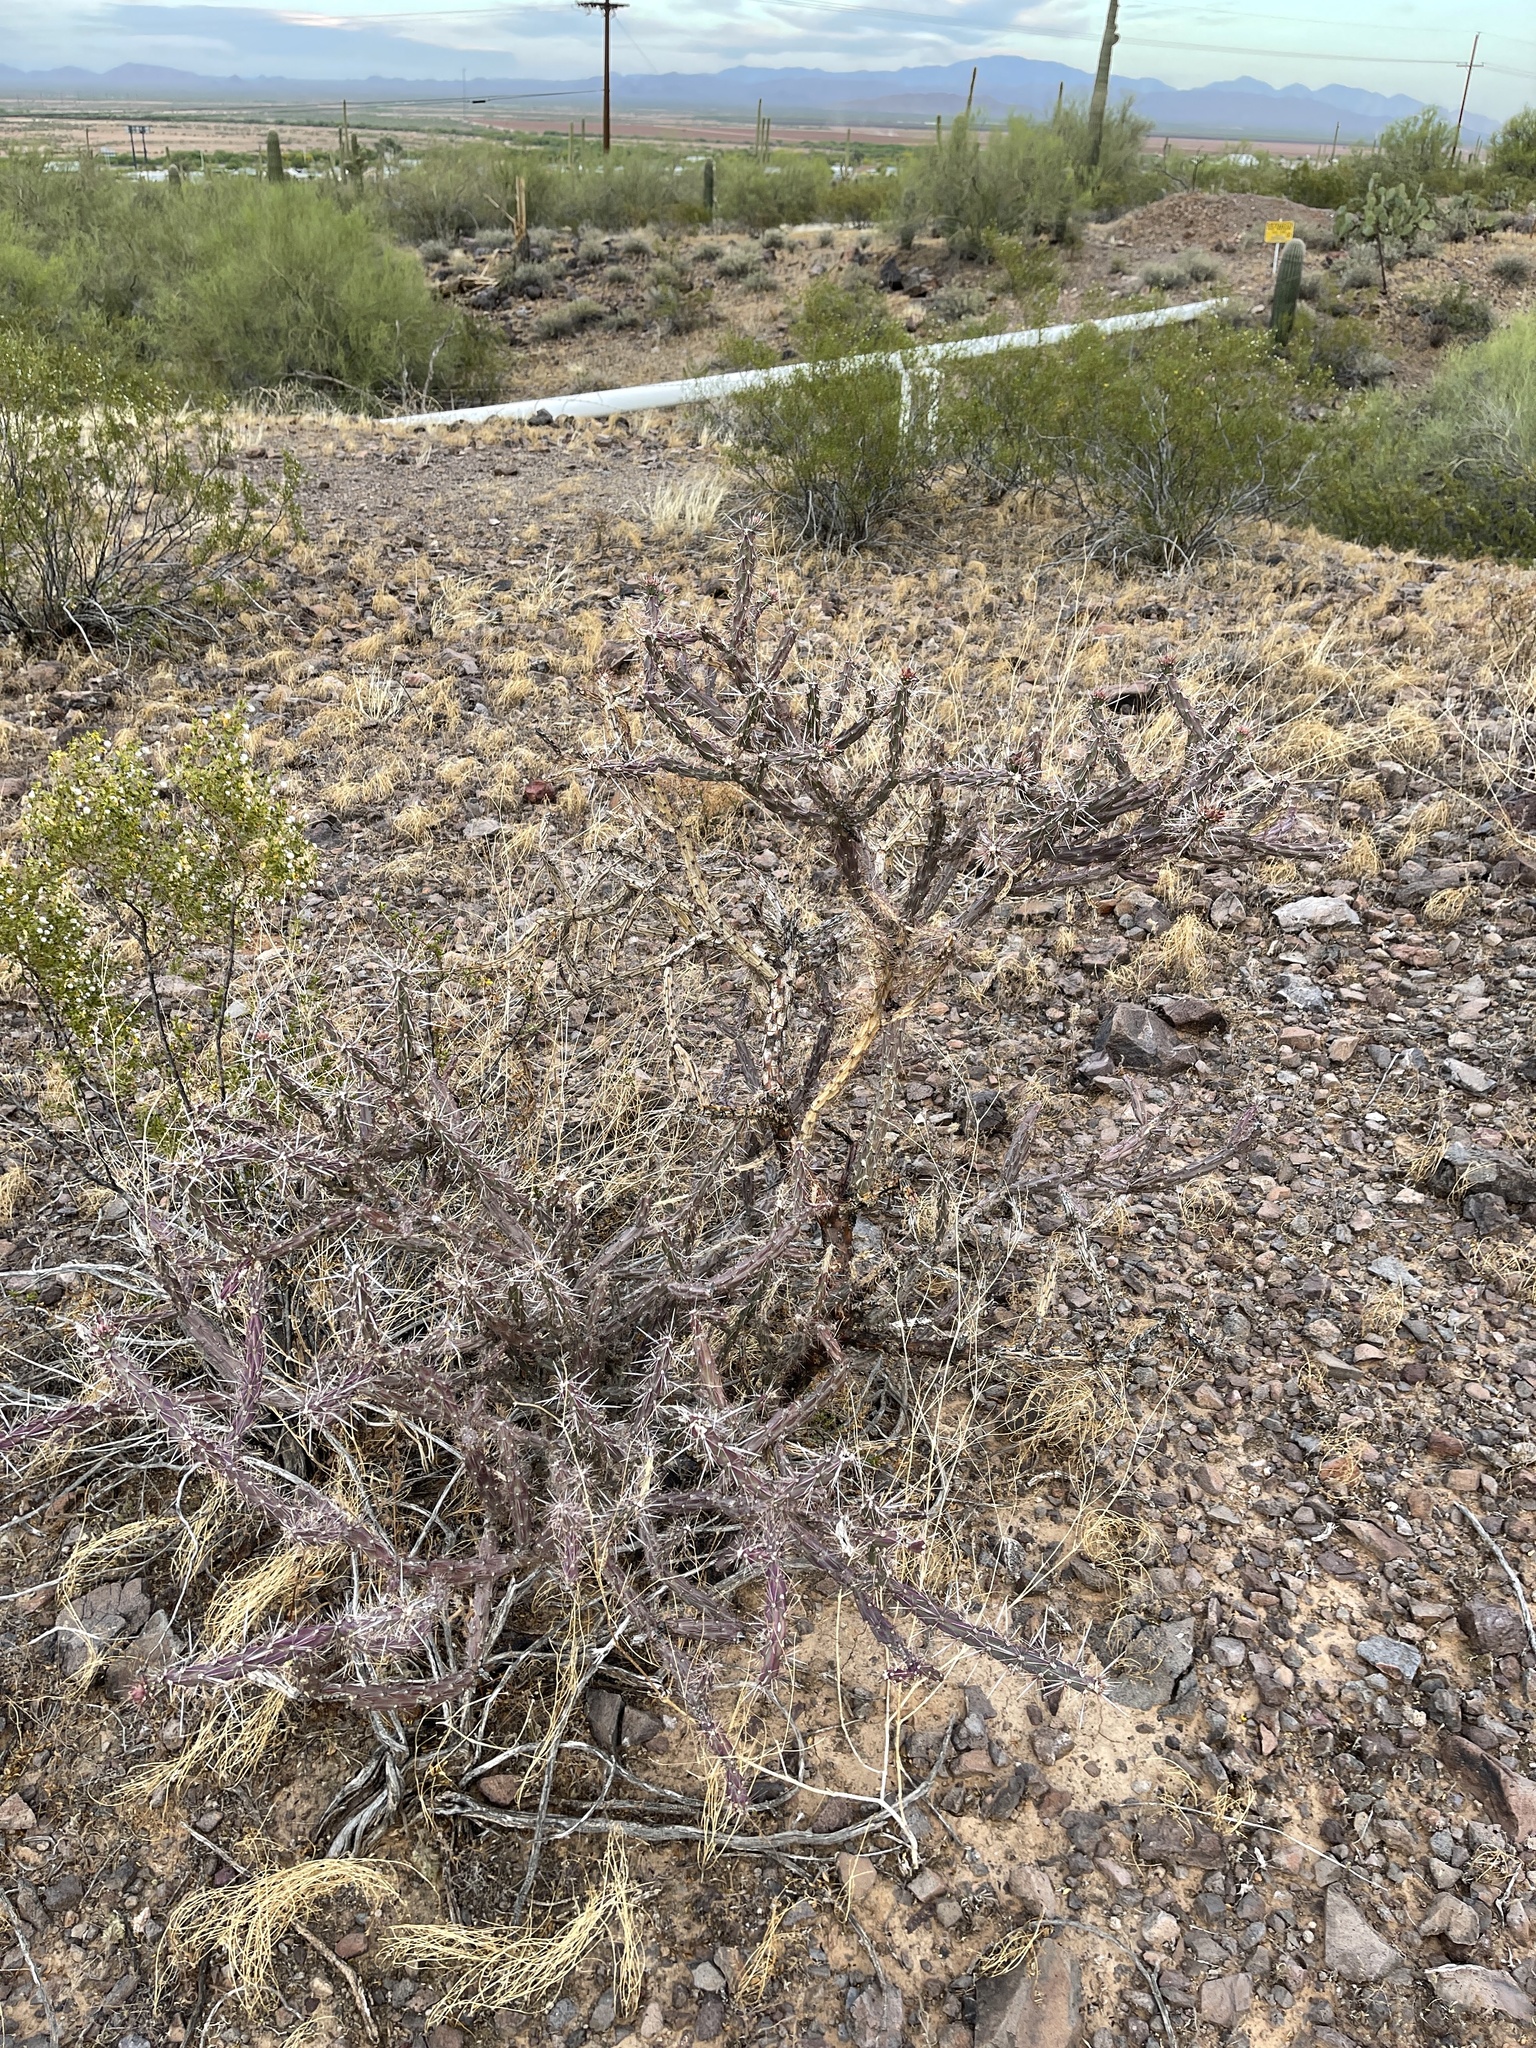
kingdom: Plantae
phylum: Tracheophyta
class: Magnoliopsida
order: Caryophyllales
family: Cactaceae
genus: Cylindropuntia
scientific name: Cylindropuntia thurberi
